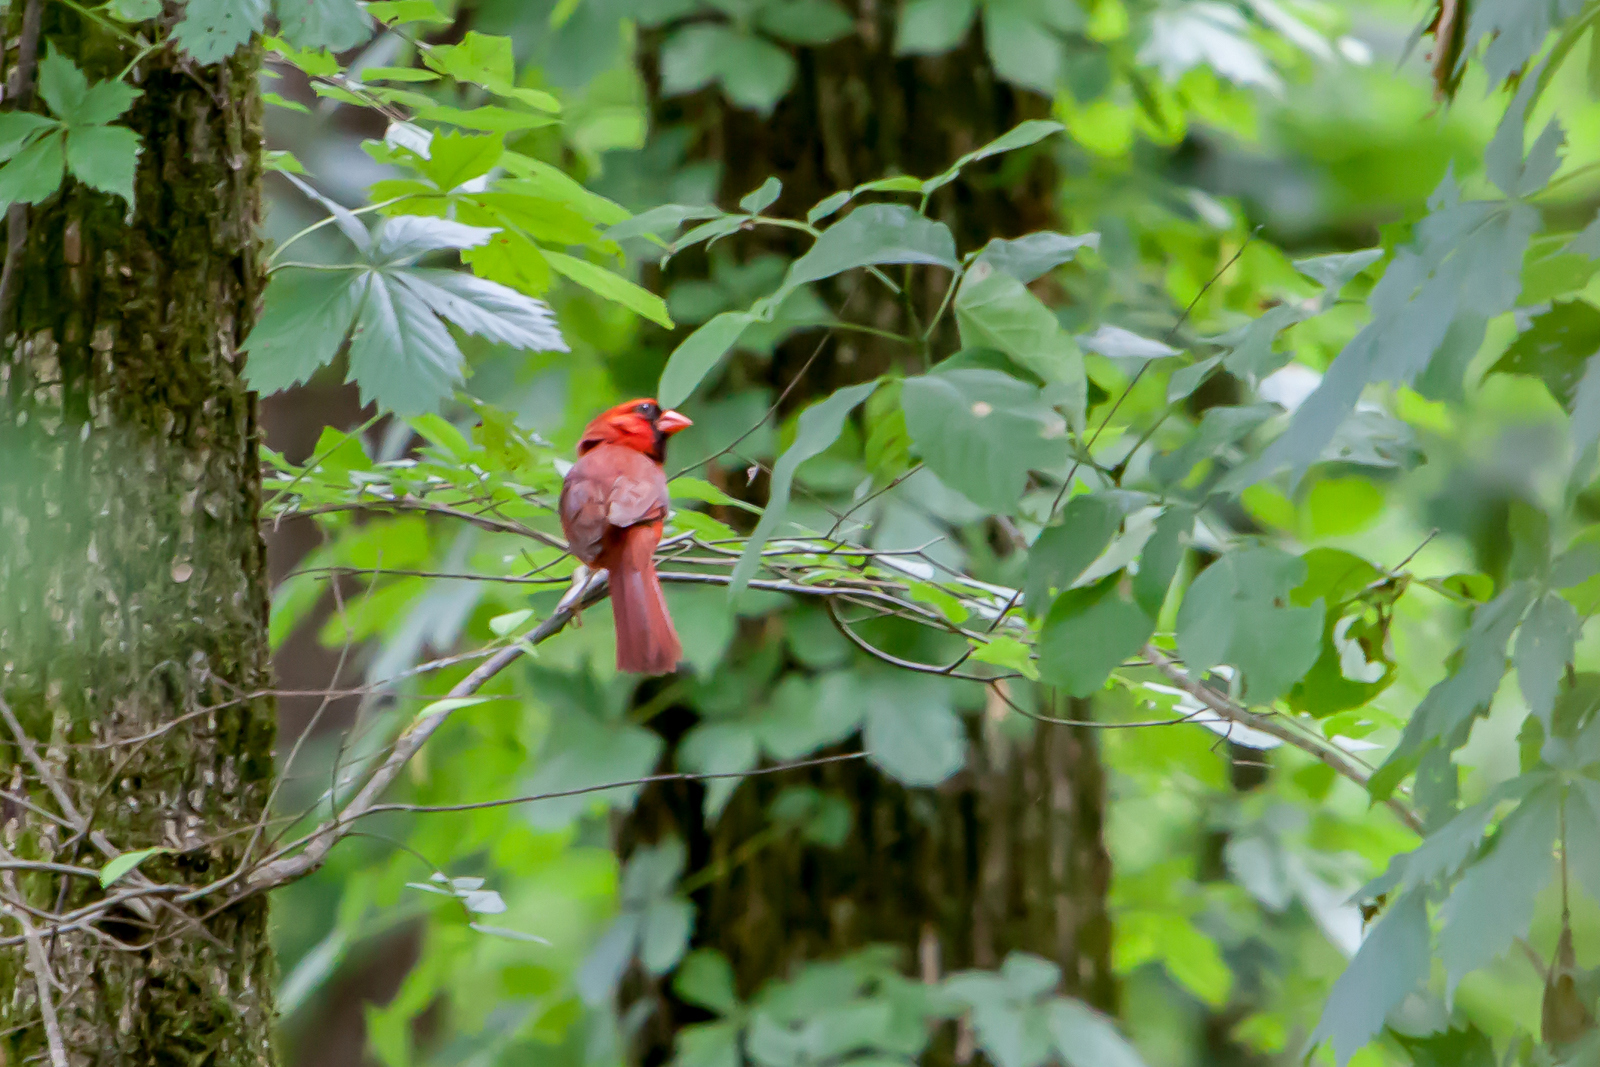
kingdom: Animalia
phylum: Chordata
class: Aves
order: Passeriformes
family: Cardinalidae
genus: Cardinalis
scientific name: Cardinalis cardinalis
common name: Northern cardinal
